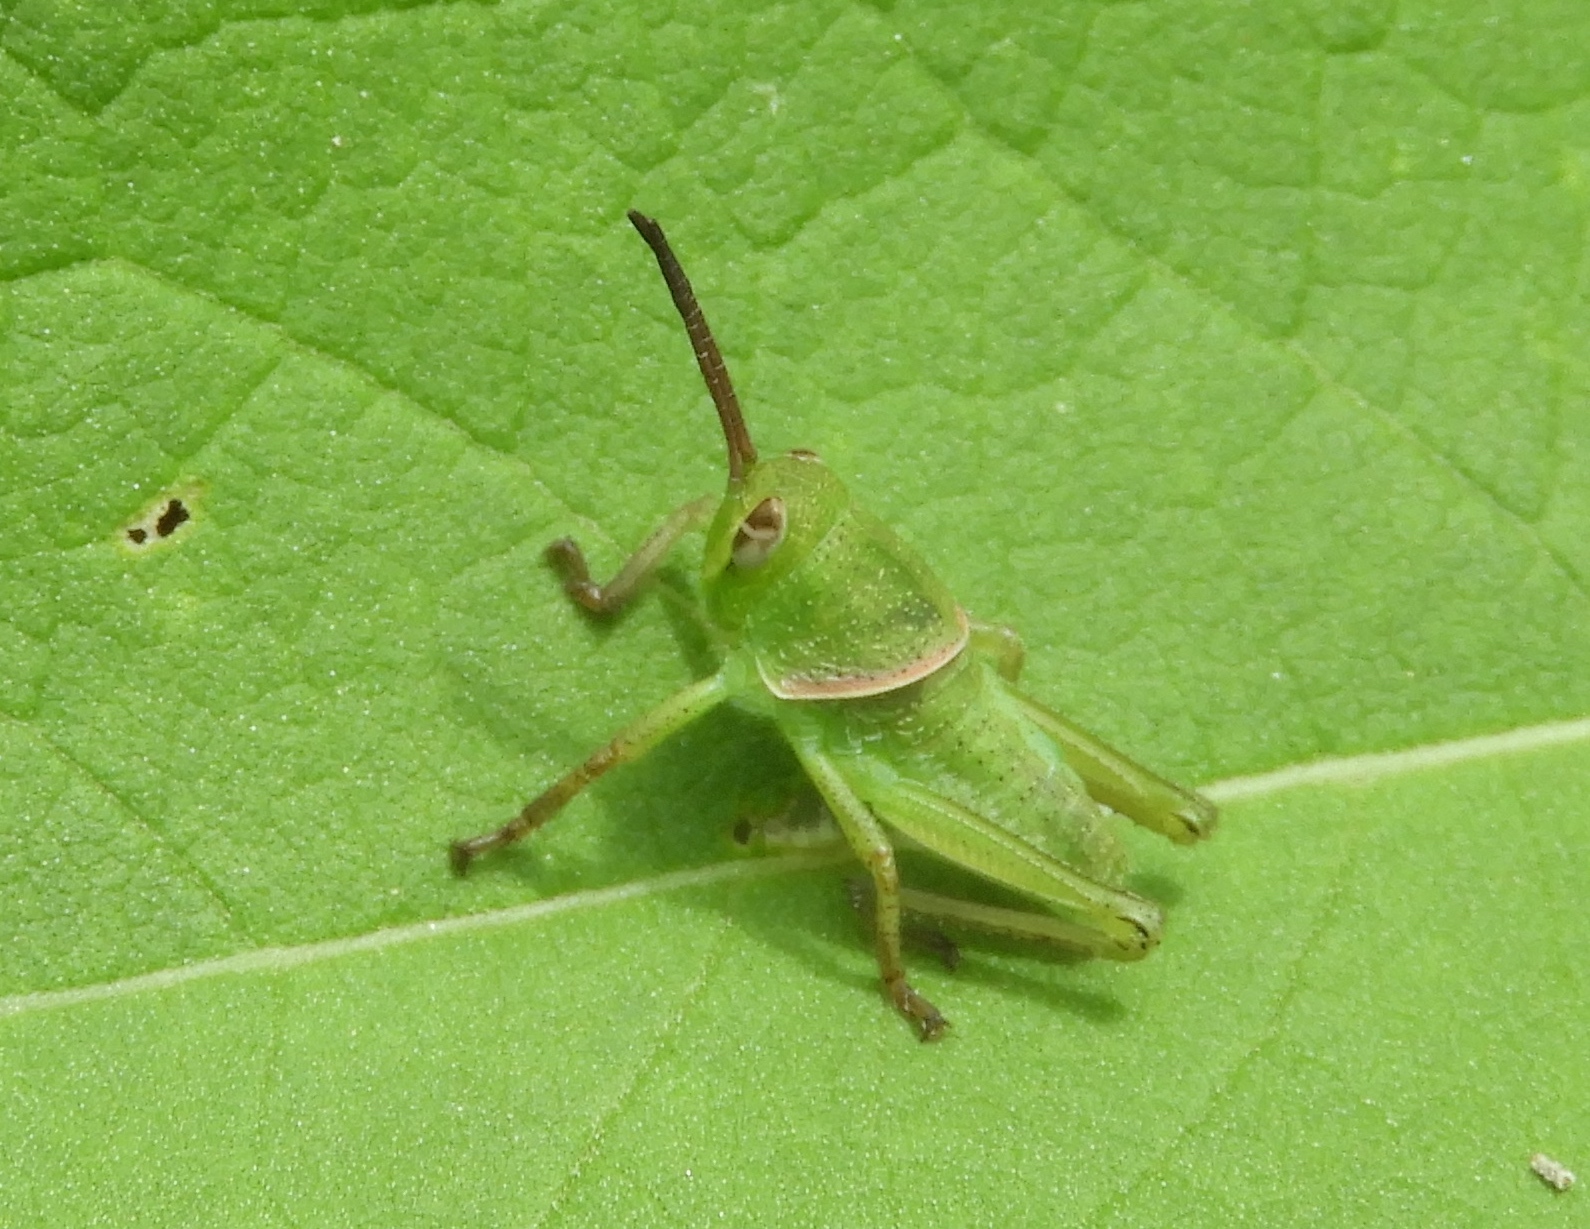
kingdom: Animalia
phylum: Arthropoda
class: Insecta
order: Orthoptera
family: Romaleidae
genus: Brachystola
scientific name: Brachystola
